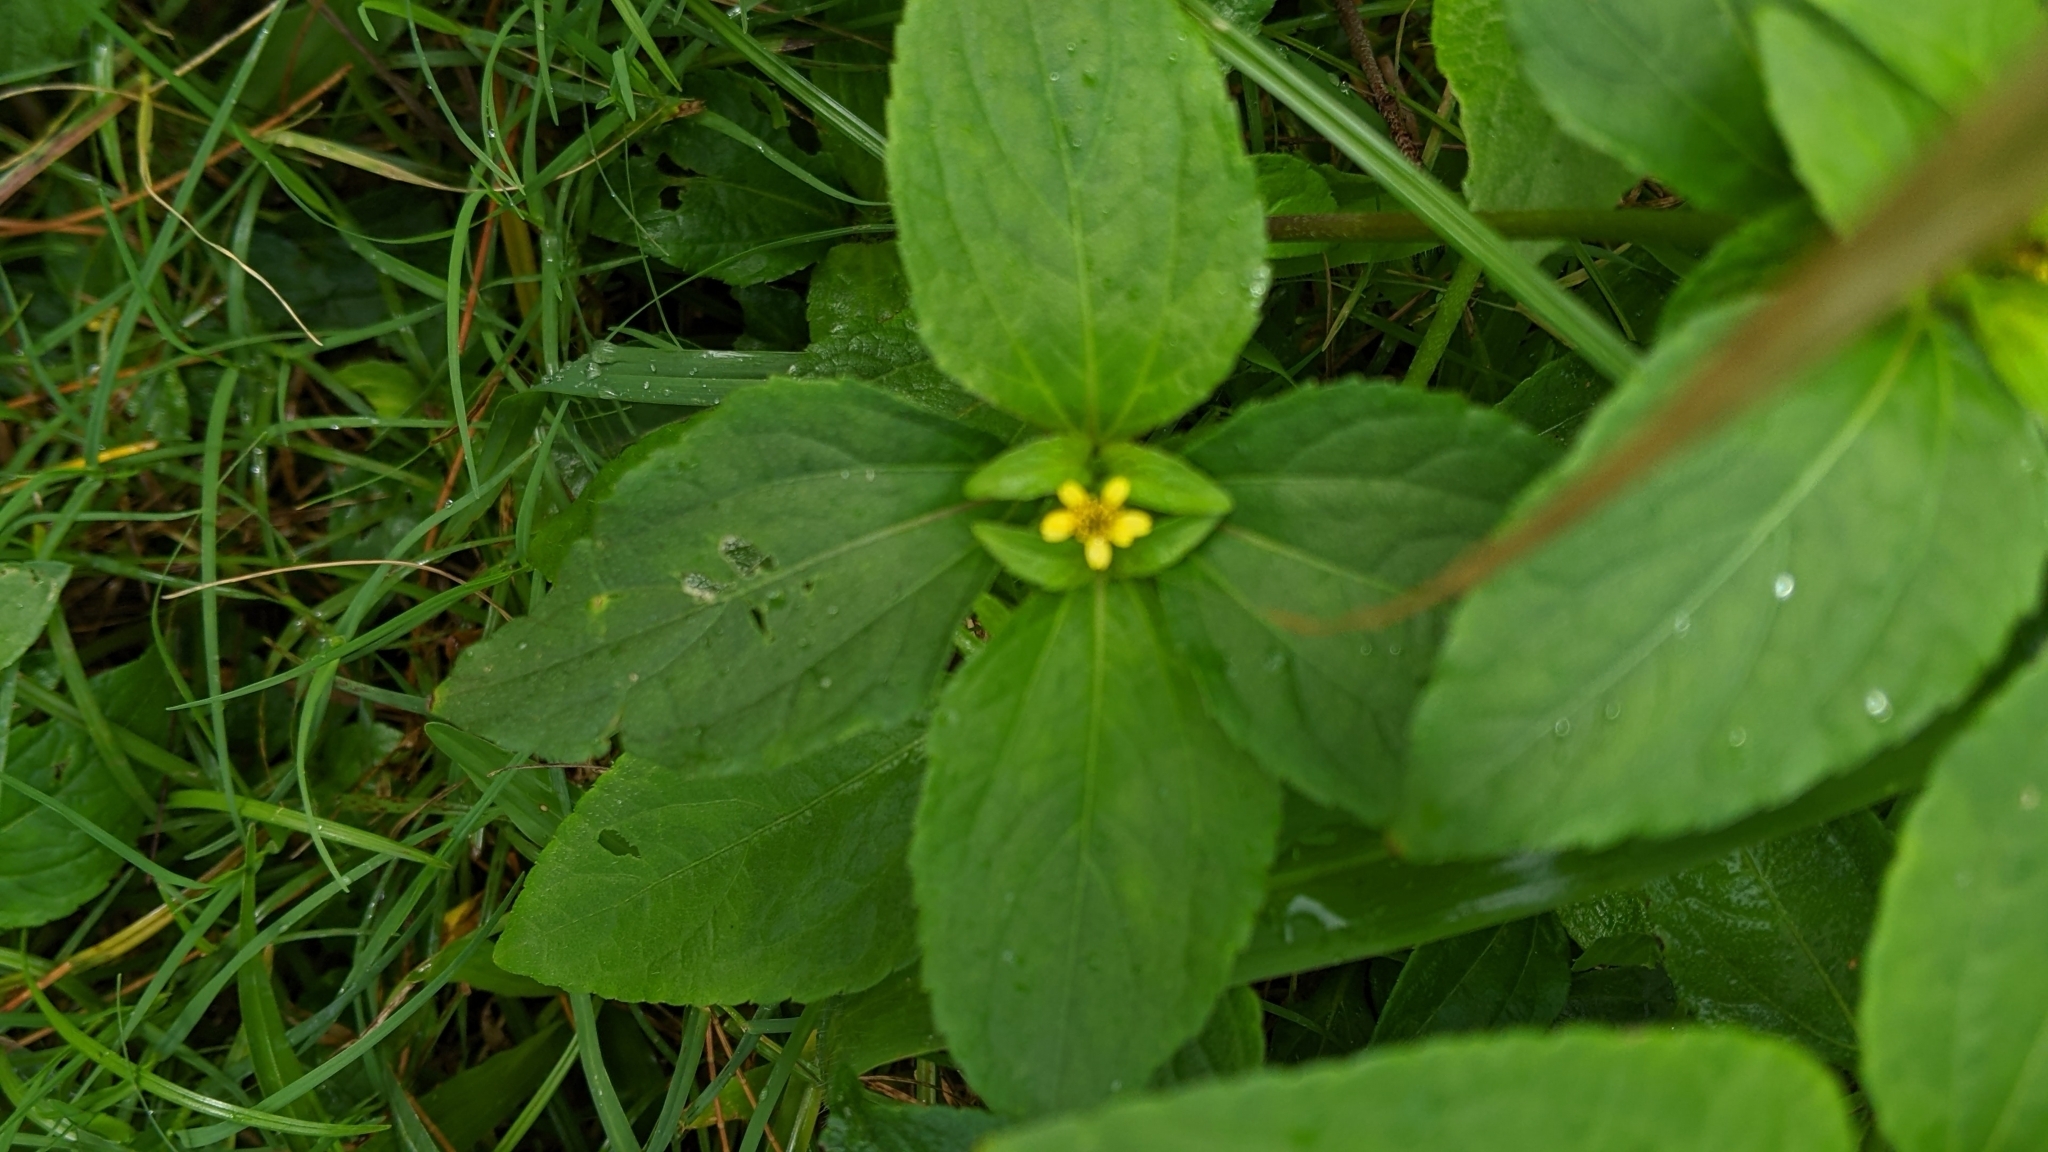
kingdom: Plantae
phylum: Tracheophyta
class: Magnoliopsida
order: Asterales
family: Asteraceae
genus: Synedrella
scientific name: Synedrella nodiflora
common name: Nodeweed
